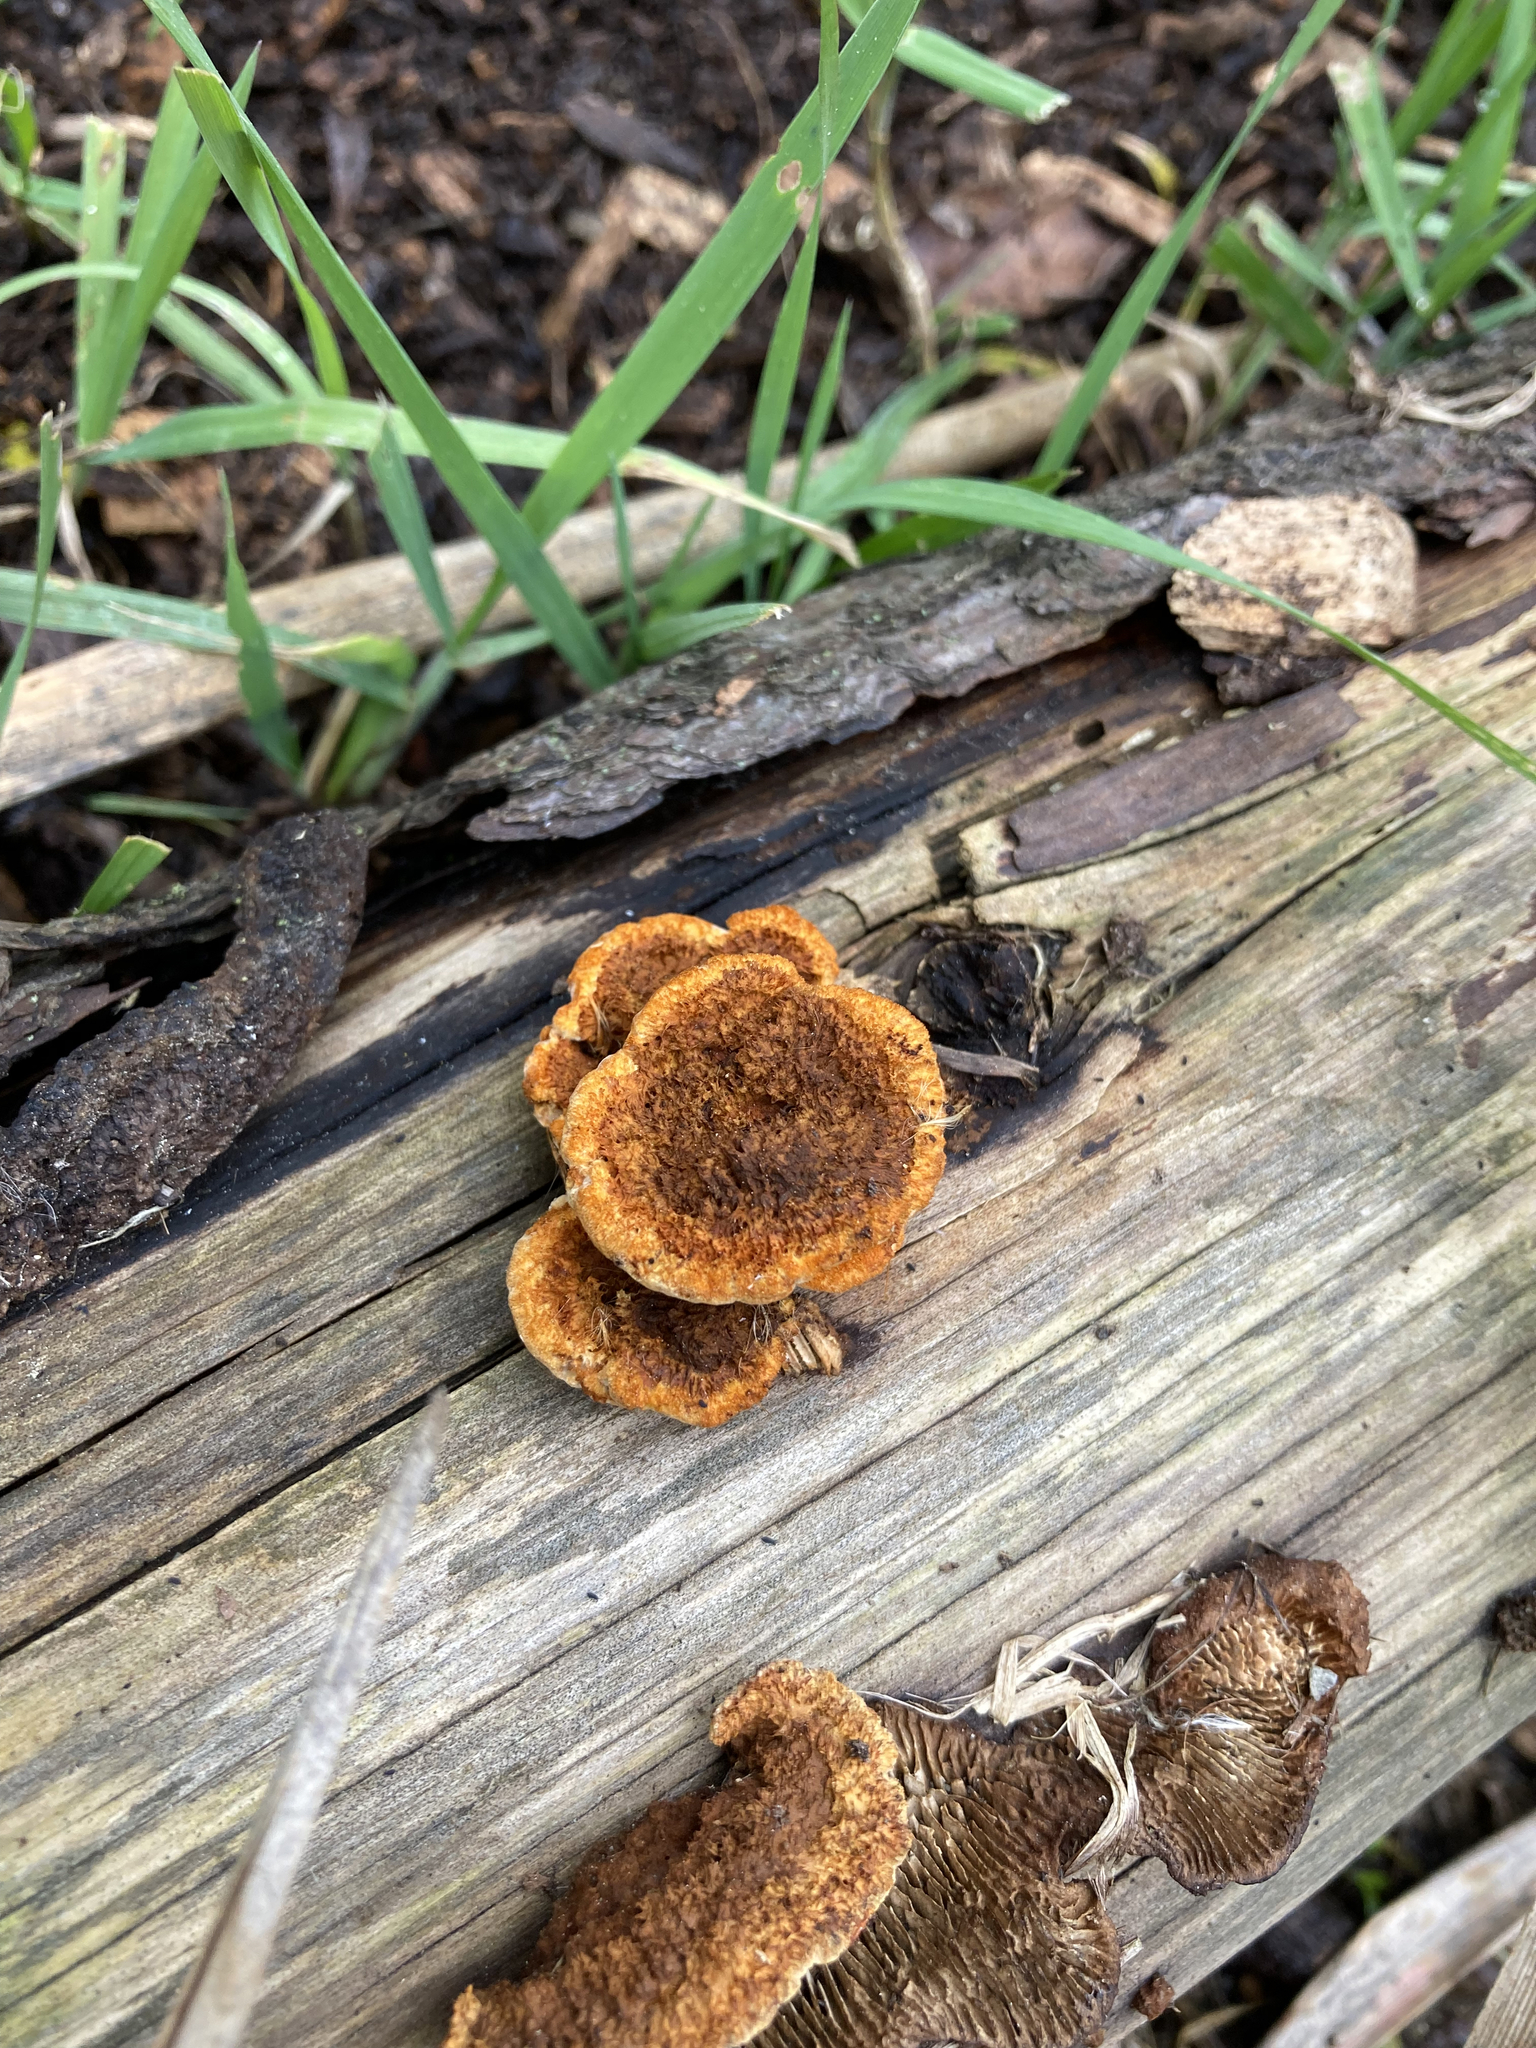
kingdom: Fungi
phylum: Basidiomycota
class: Agaricomycetes
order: Gloeophyllales
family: Gloeophyllaceae
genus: Gloeophyllum
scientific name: Gloeophyllum sepiarium
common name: Conifer mazegill
